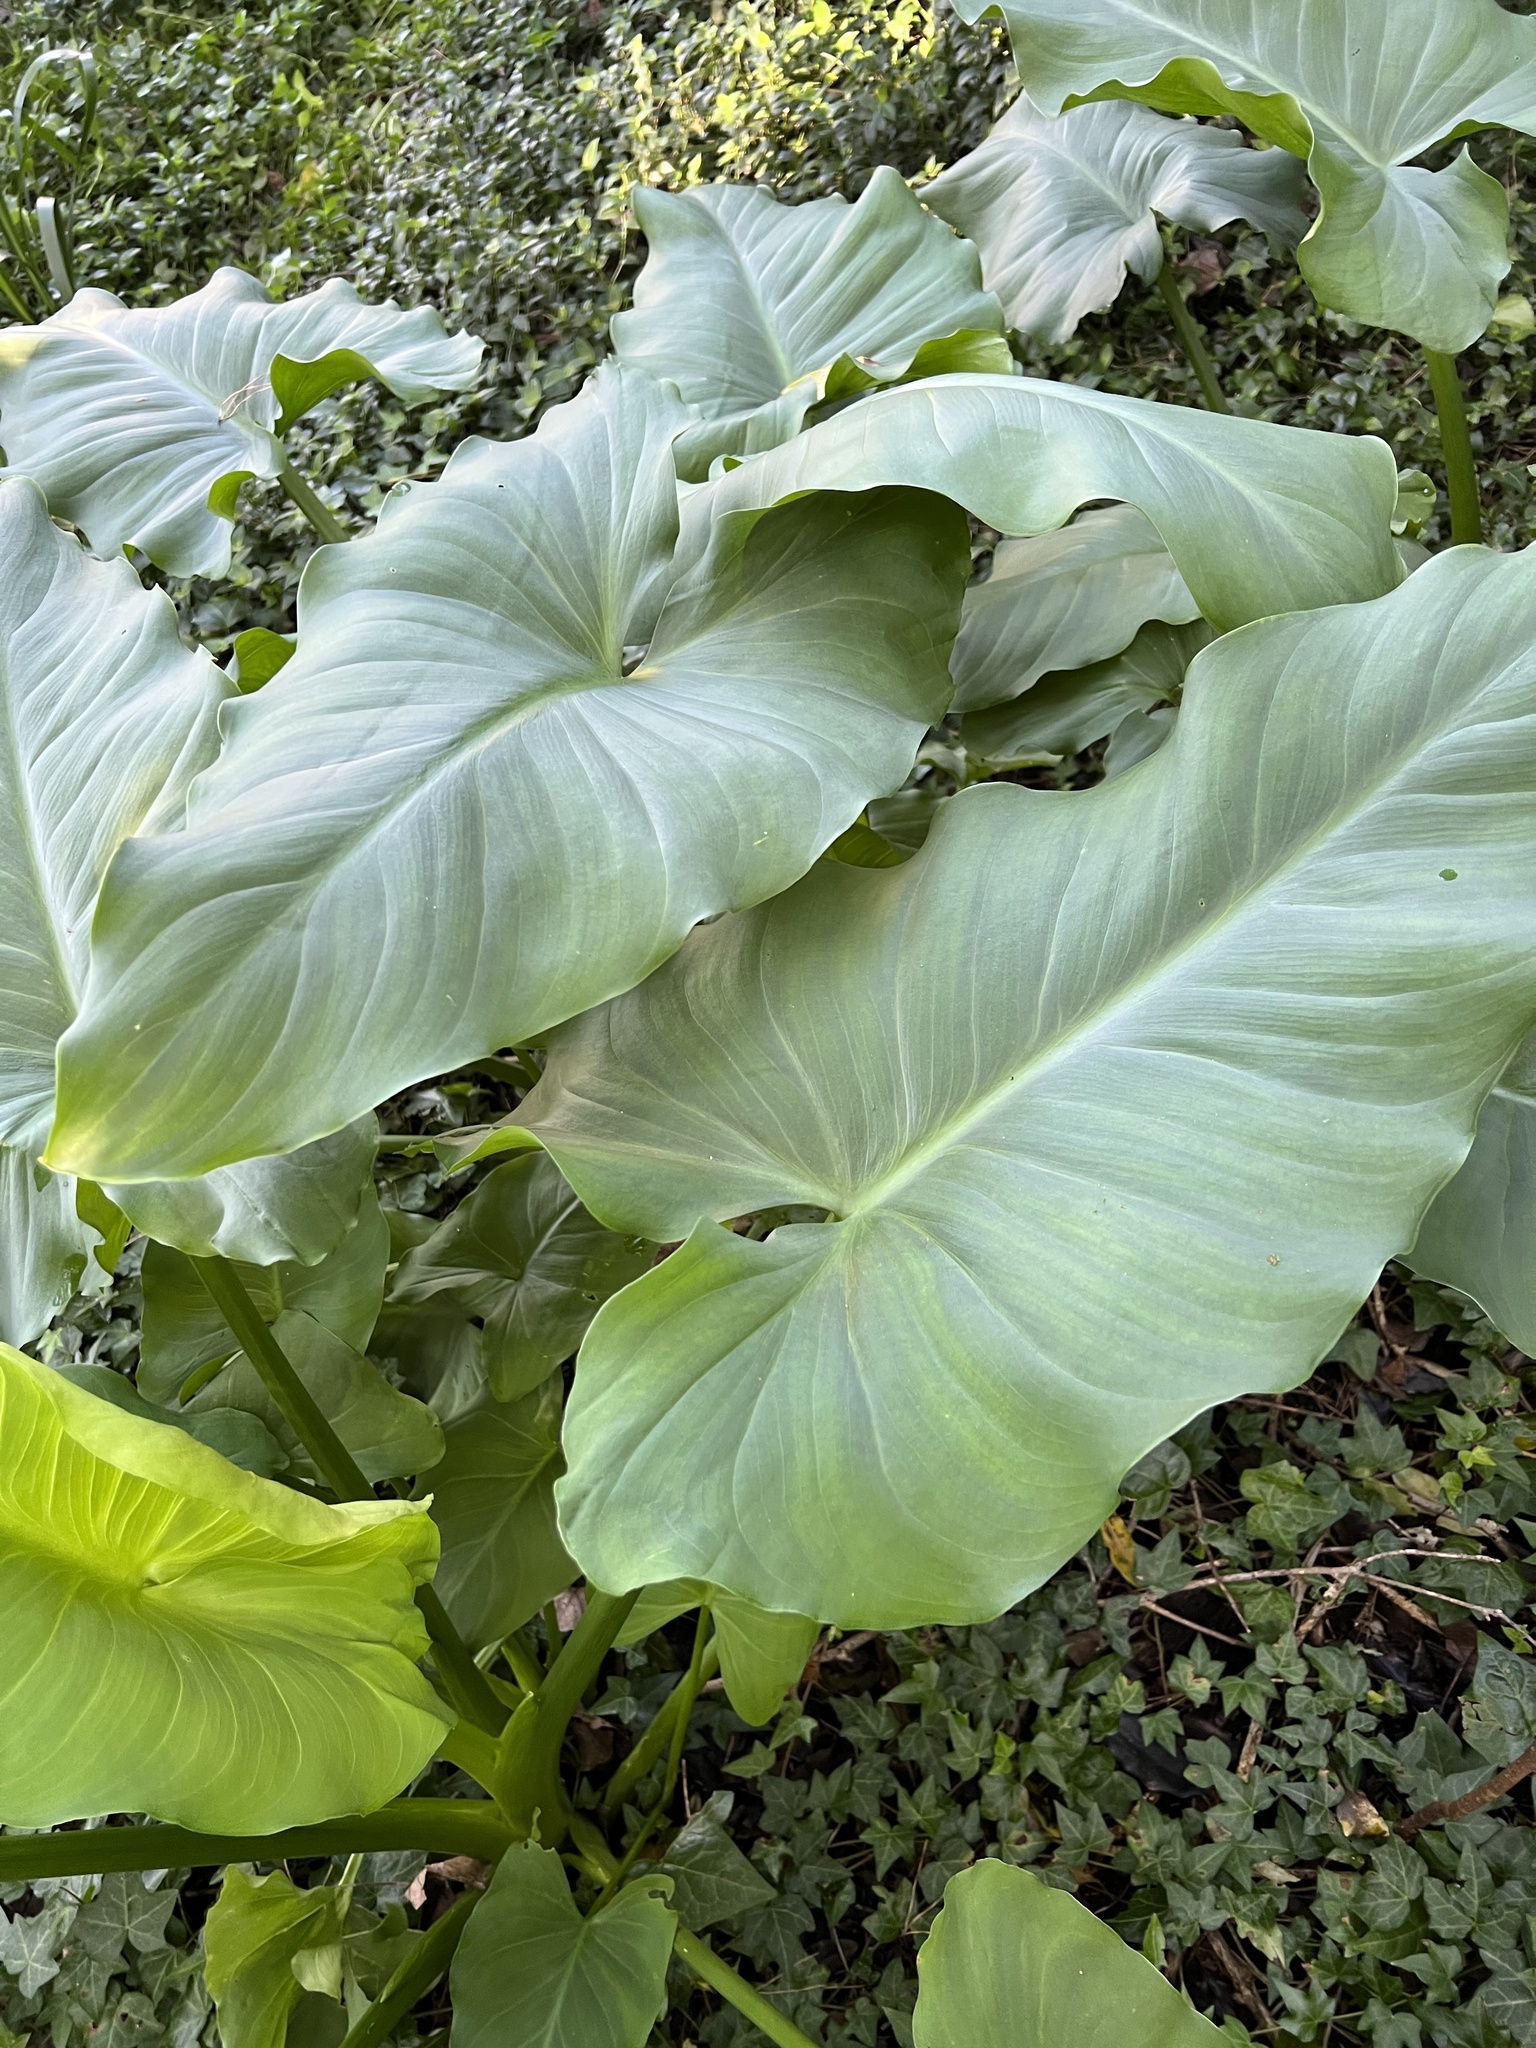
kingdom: Plantae
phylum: Tracheophyta
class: Liliopsida
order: Alismatales
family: Araceae
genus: Zantedeschia
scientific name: Zantedeschia aethiopica
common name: Altar-lily
